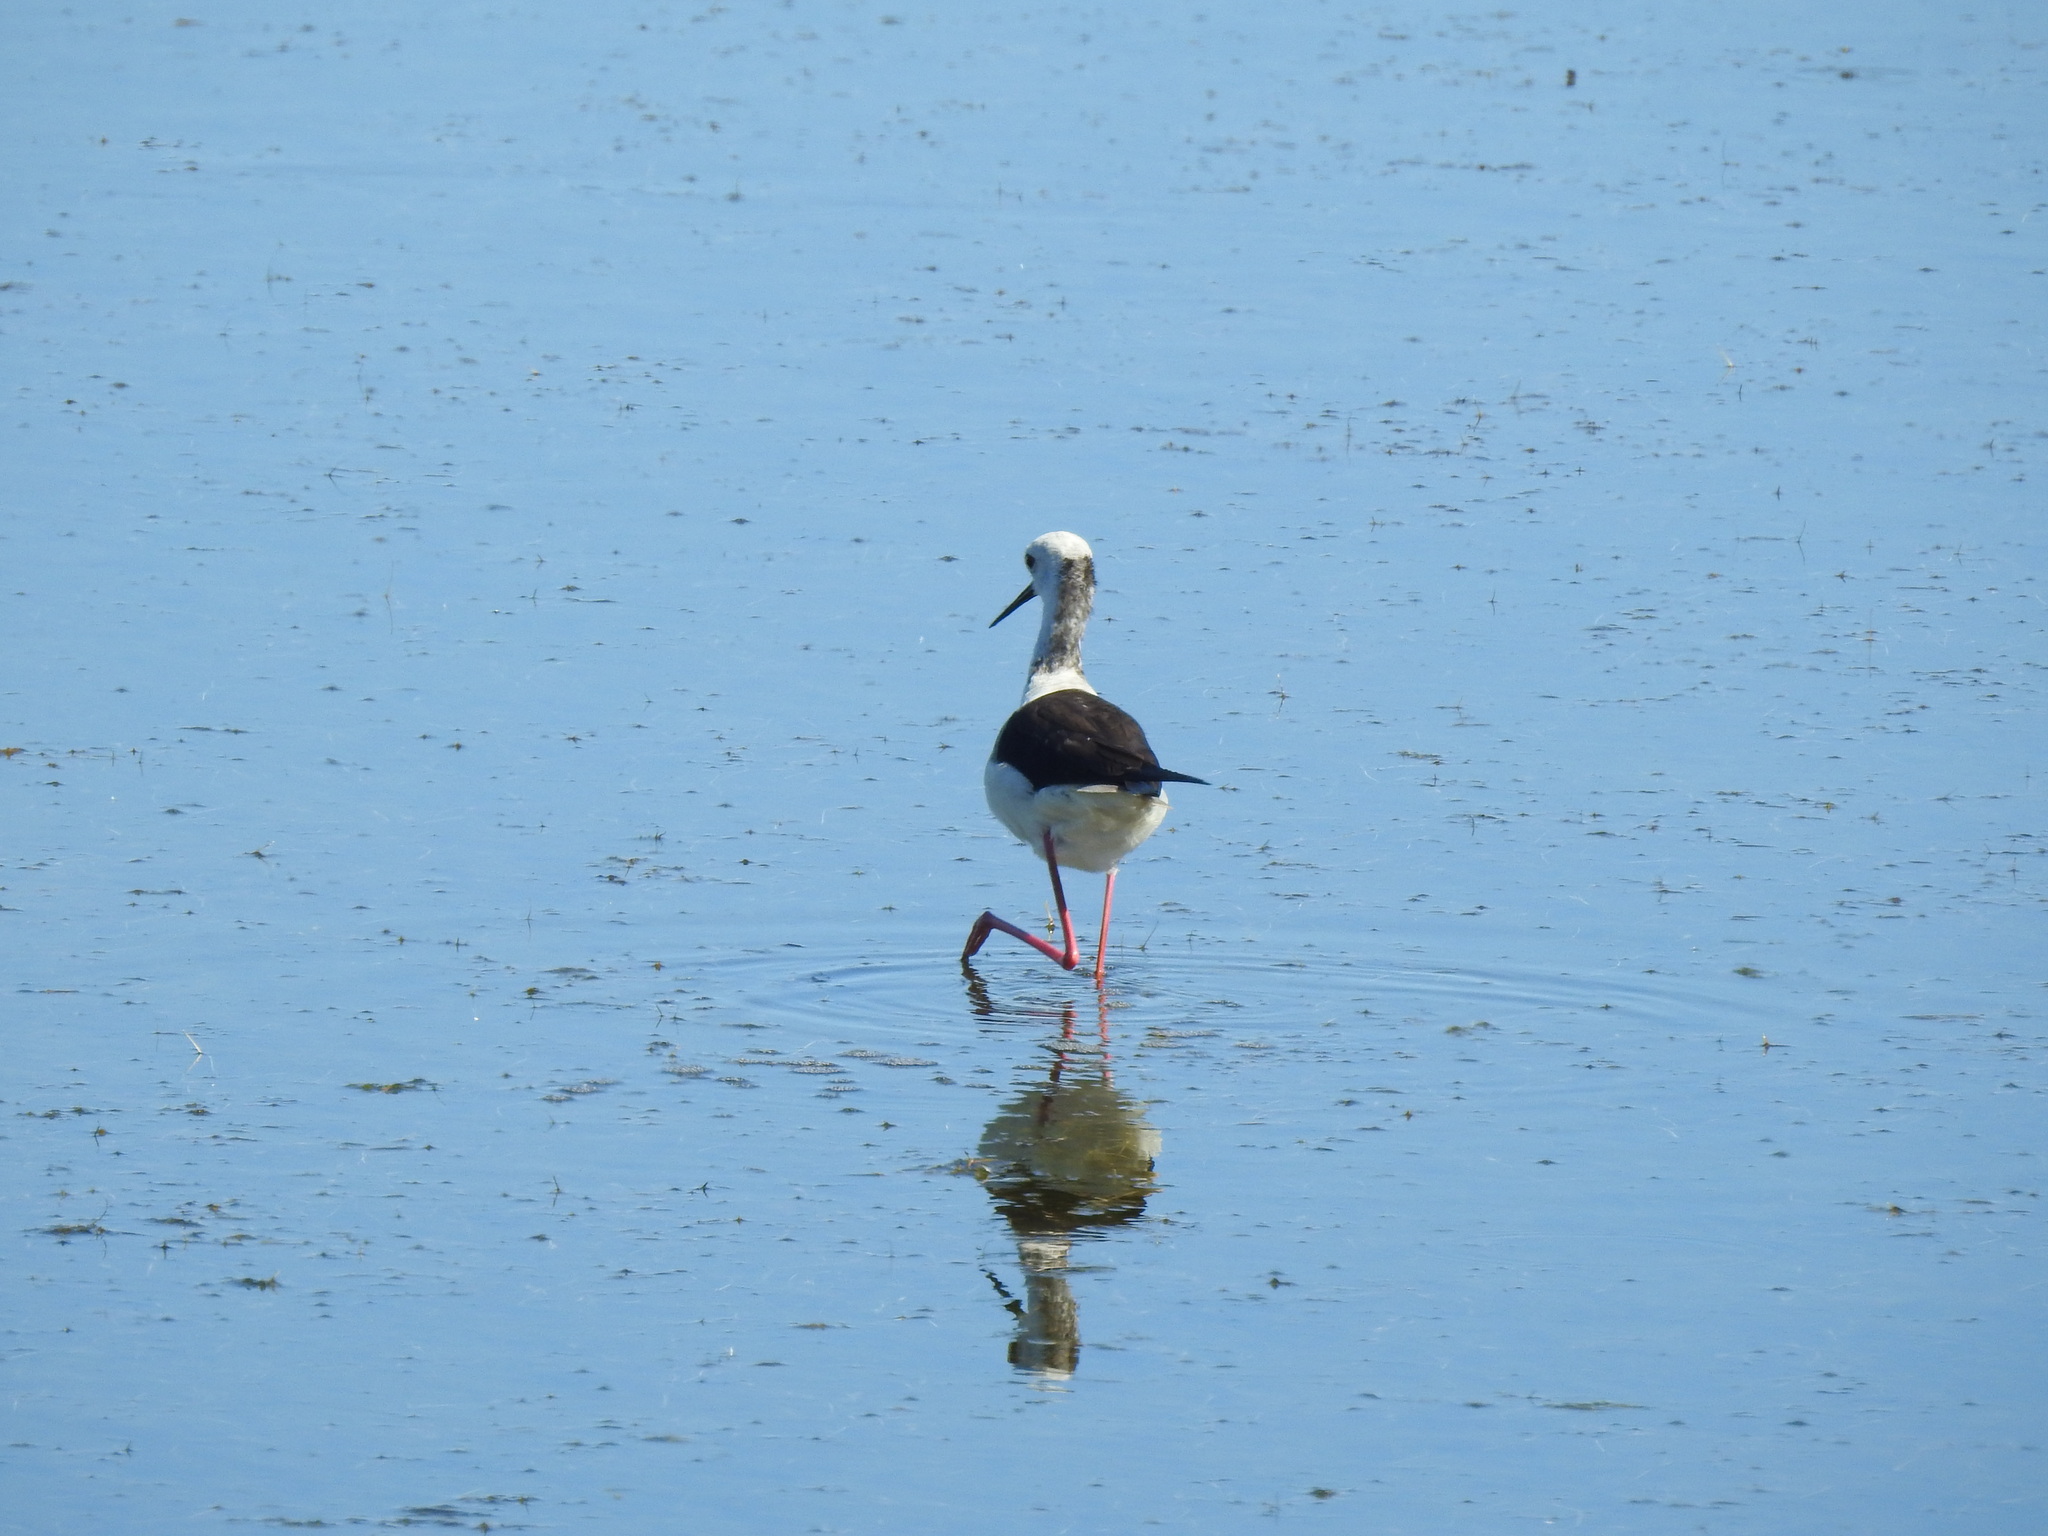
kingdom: Animalia
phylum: Chordata
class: Aves
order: Charadriiformes
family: Recurvirostridae
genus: Himantopus
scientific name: Himantopus himantopus
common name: Black-winged stilt
